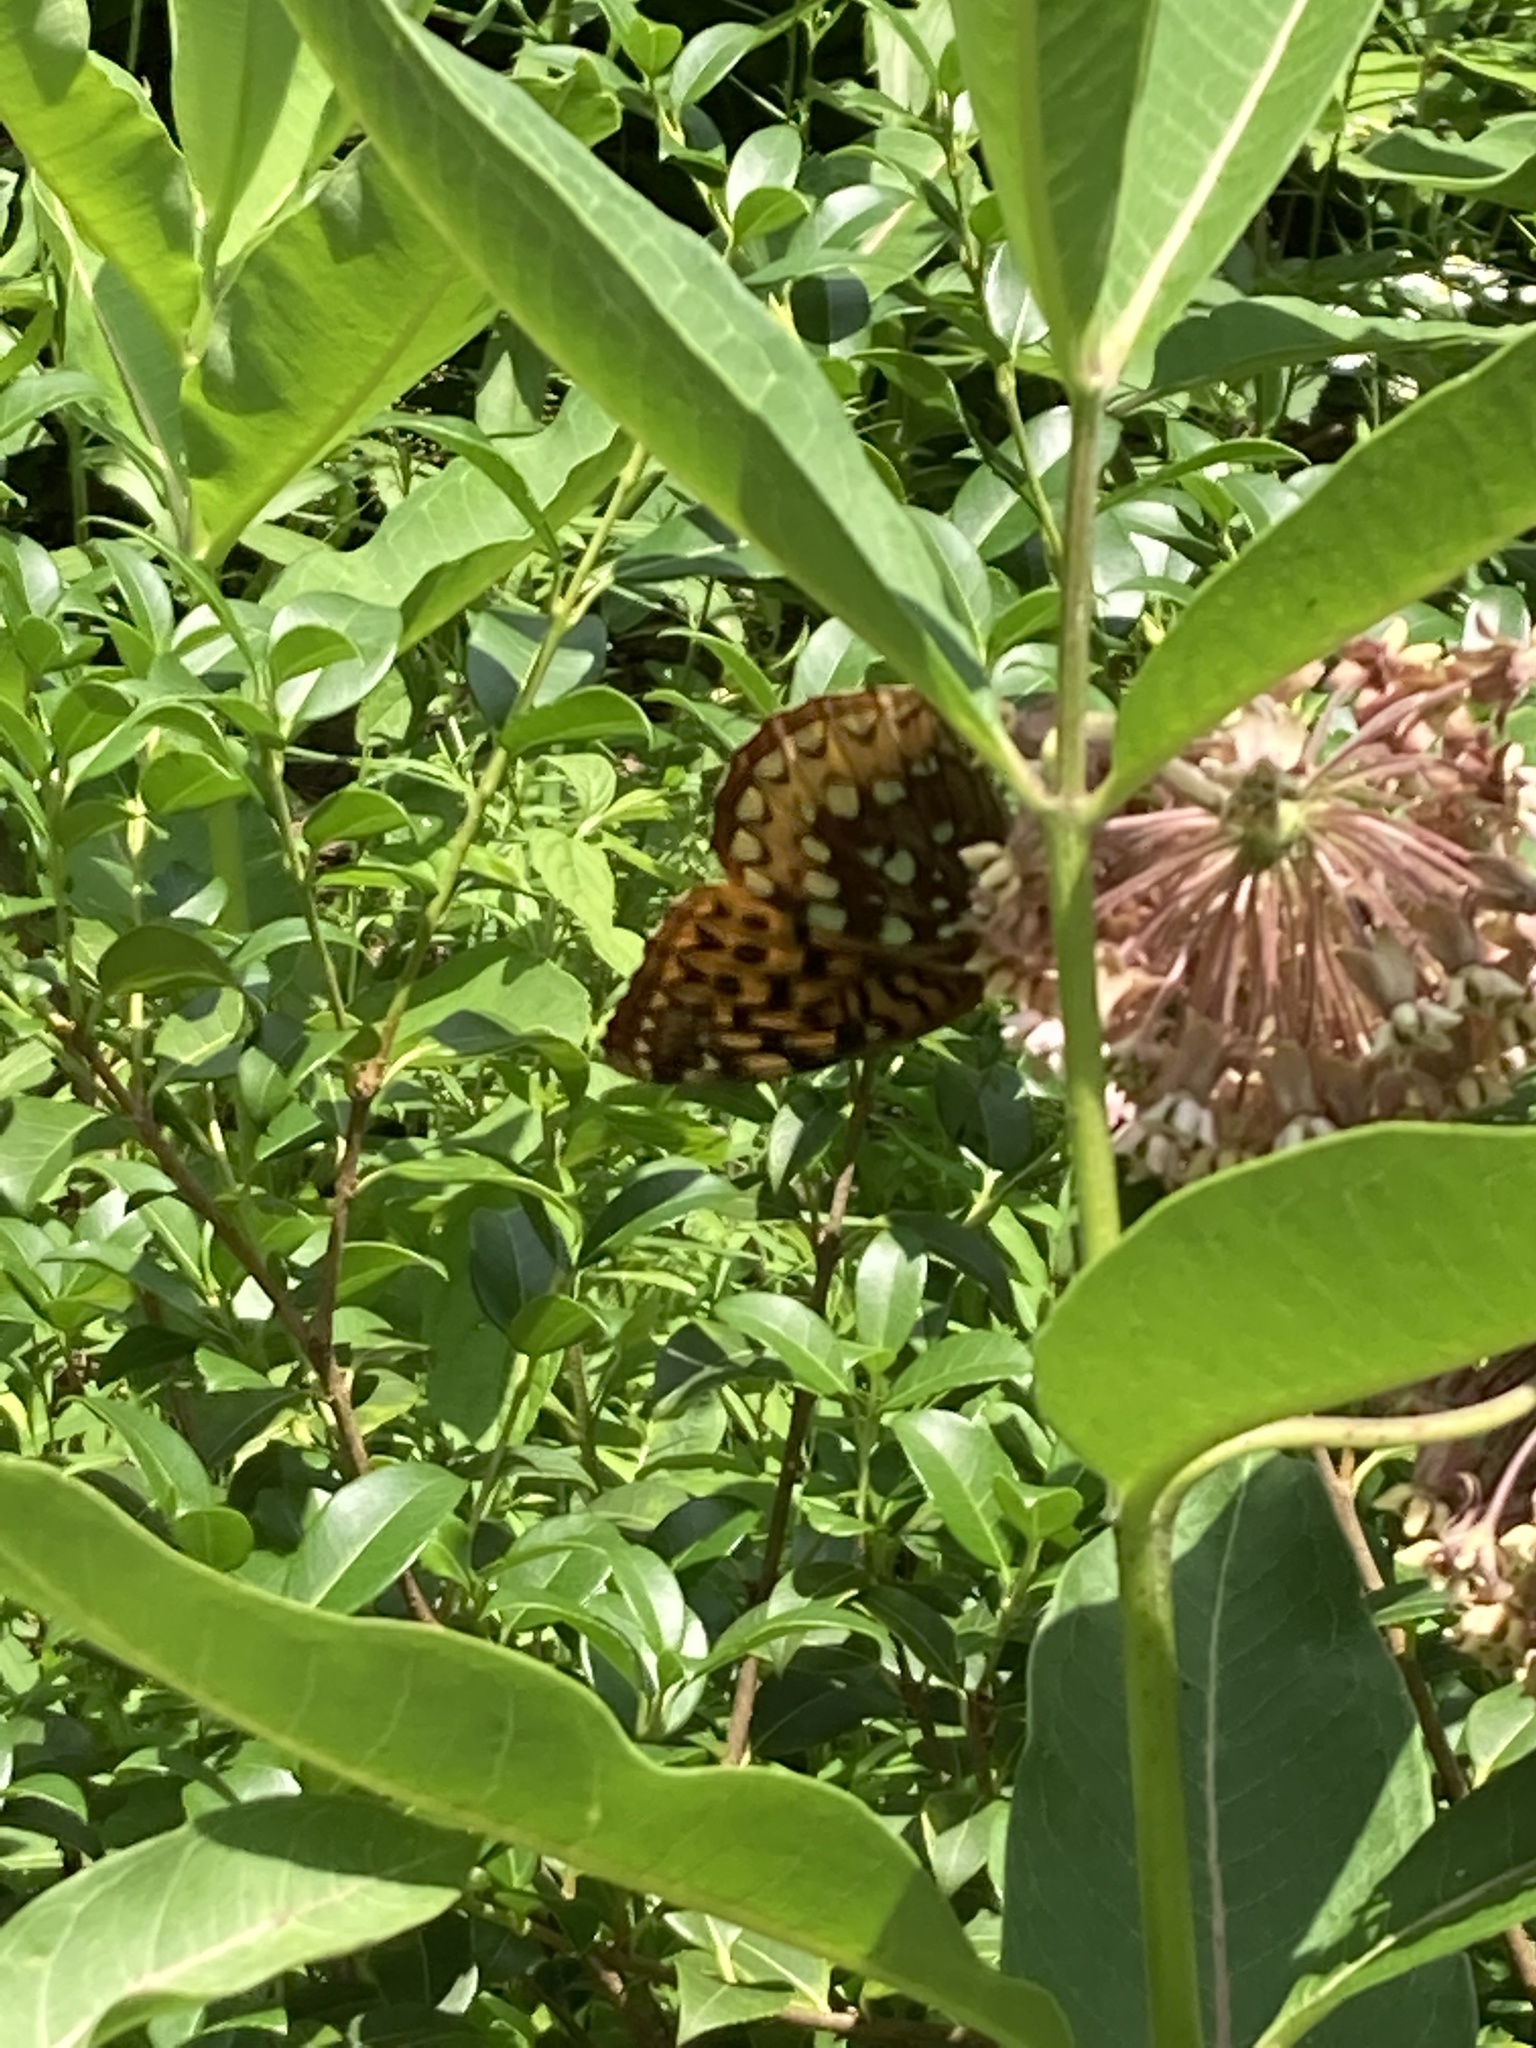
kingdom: Animalia
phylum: Arthropoda
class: Insecta
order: Lepidoptera
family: Nymphalidae
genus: Speyeria
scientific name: Speyeria cybele
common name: Great spangled fritillary
